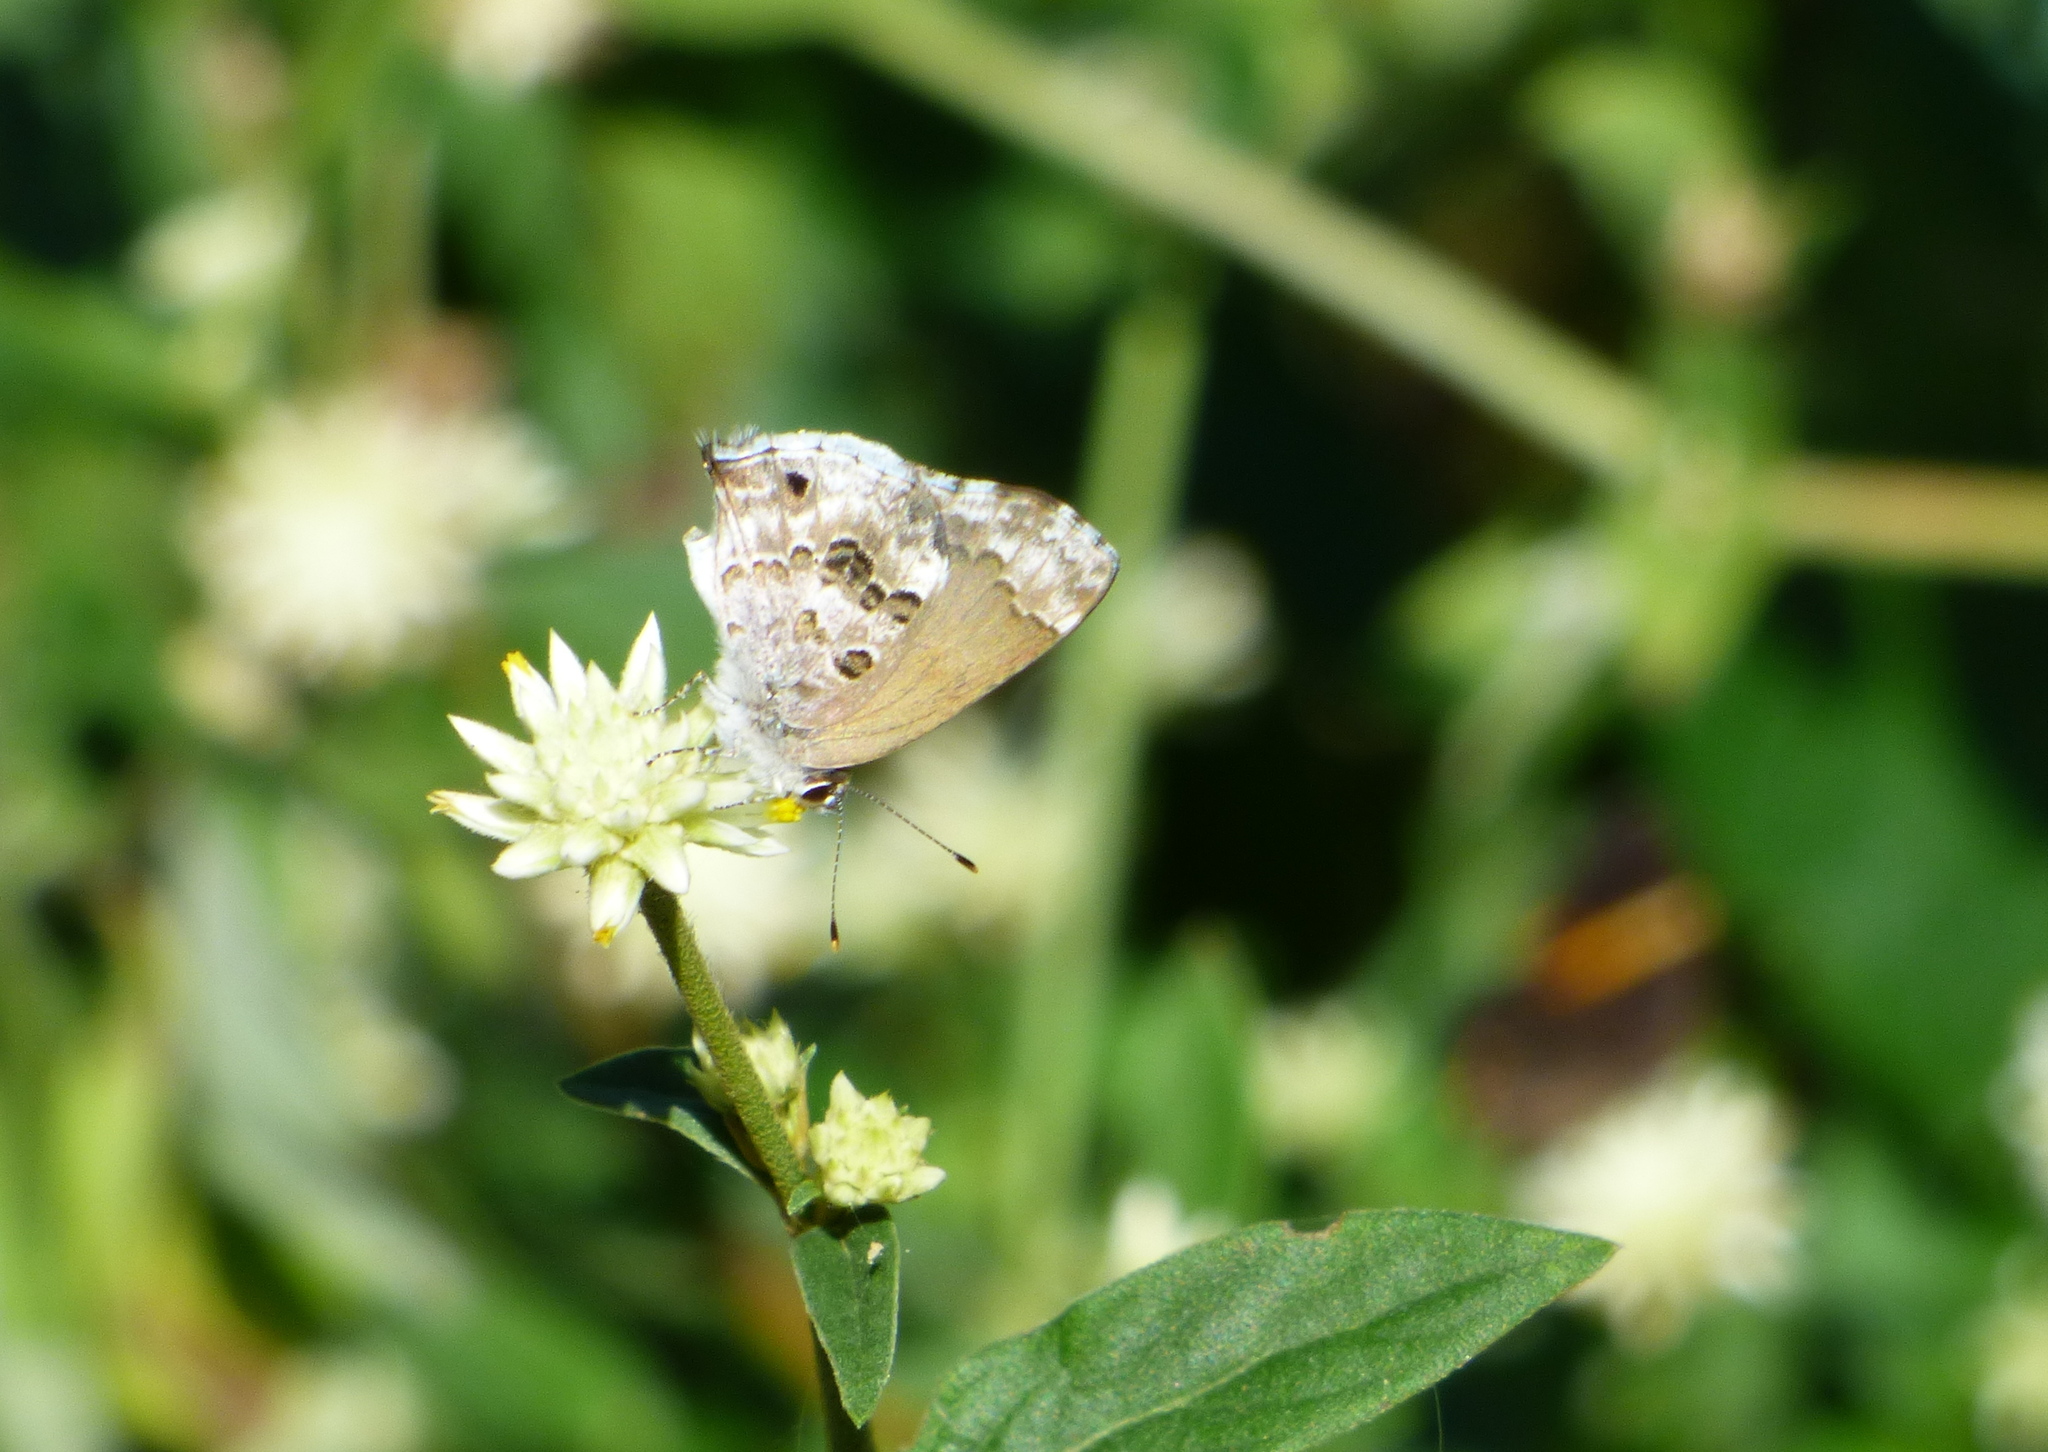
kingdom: Animalia
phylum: Arthropoda
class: Insecta
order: Lepidoptera
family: Lycaenidae
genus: Thecla
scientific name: Thecla cestri
